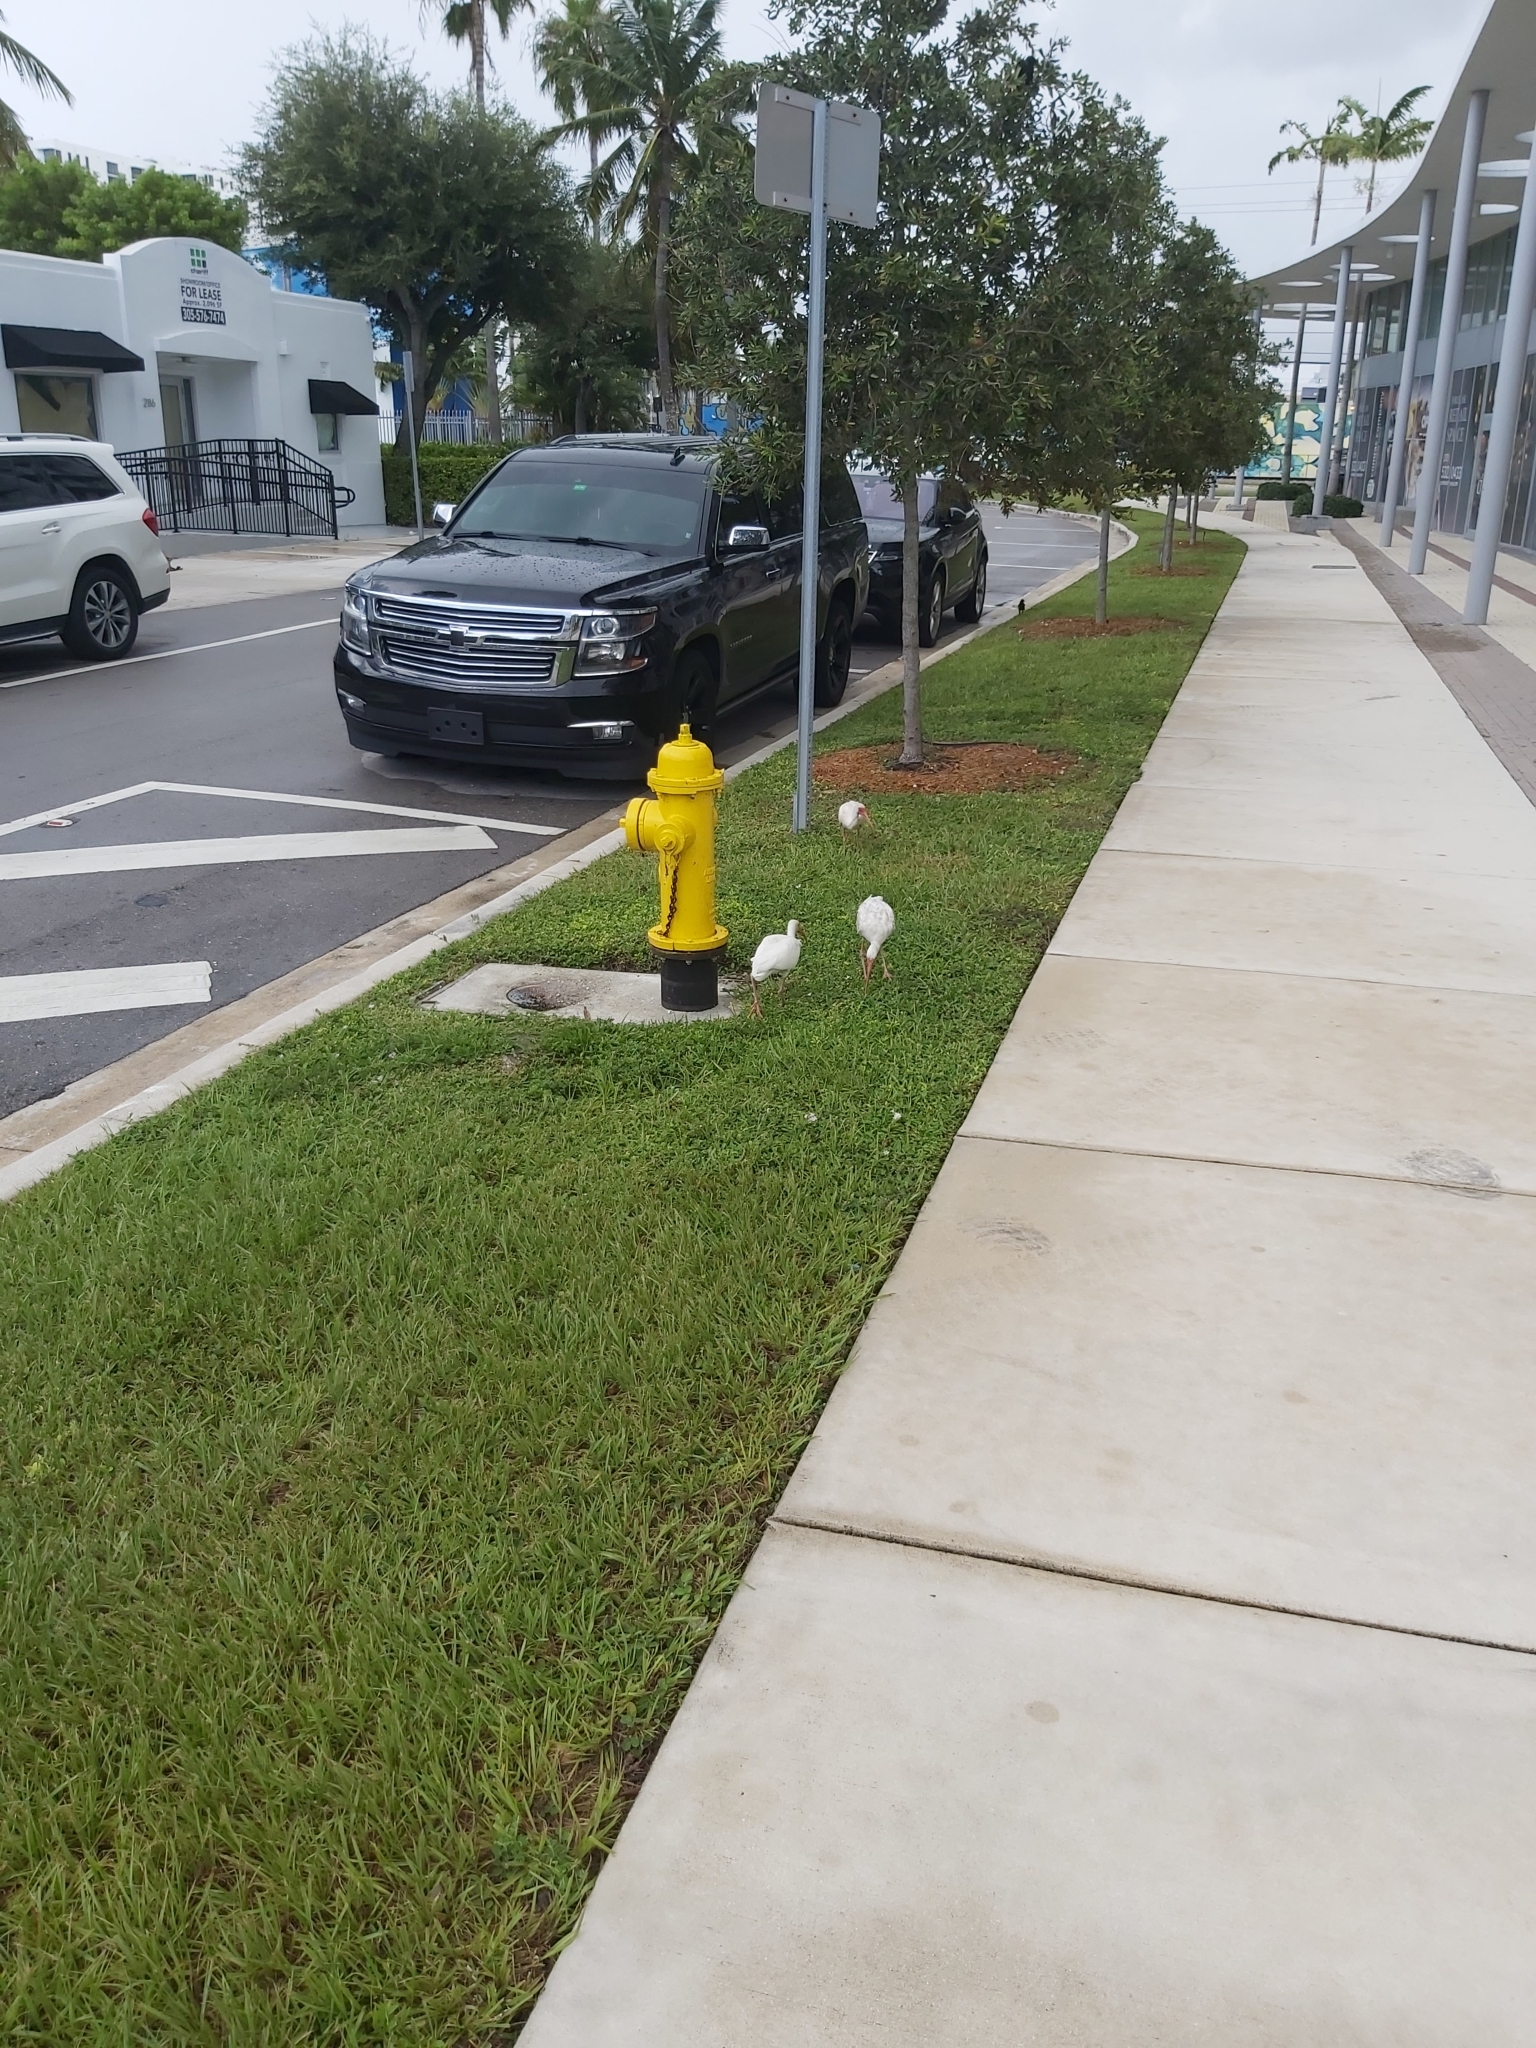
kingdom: Animalia
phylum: Chordata
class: Aves
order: Pelecaniformes
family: Threskiornithidae
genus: Eudocimus
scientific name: Eudocimus albus
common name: White ibis
